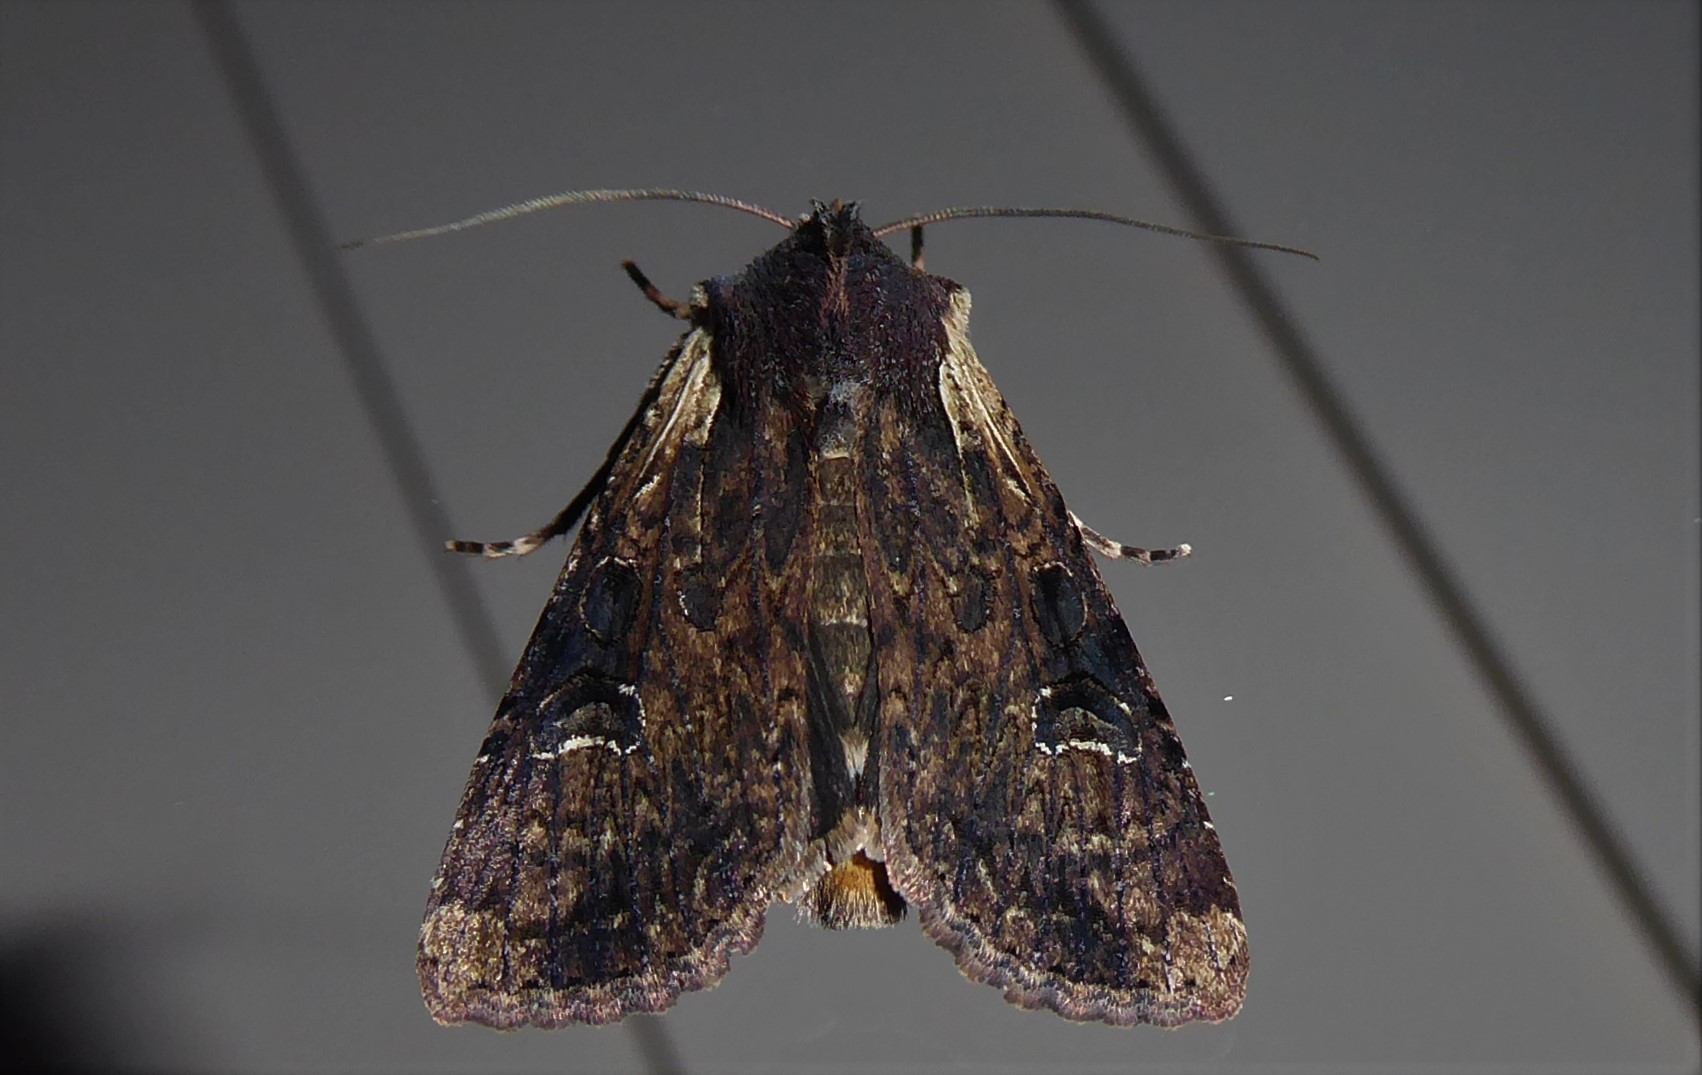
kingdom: Animalia
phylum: Arthropoda
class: Insecta
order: Lepidoptera
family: Noctuidae
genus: Ichneutica
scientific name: Ichneutica omoplaca
